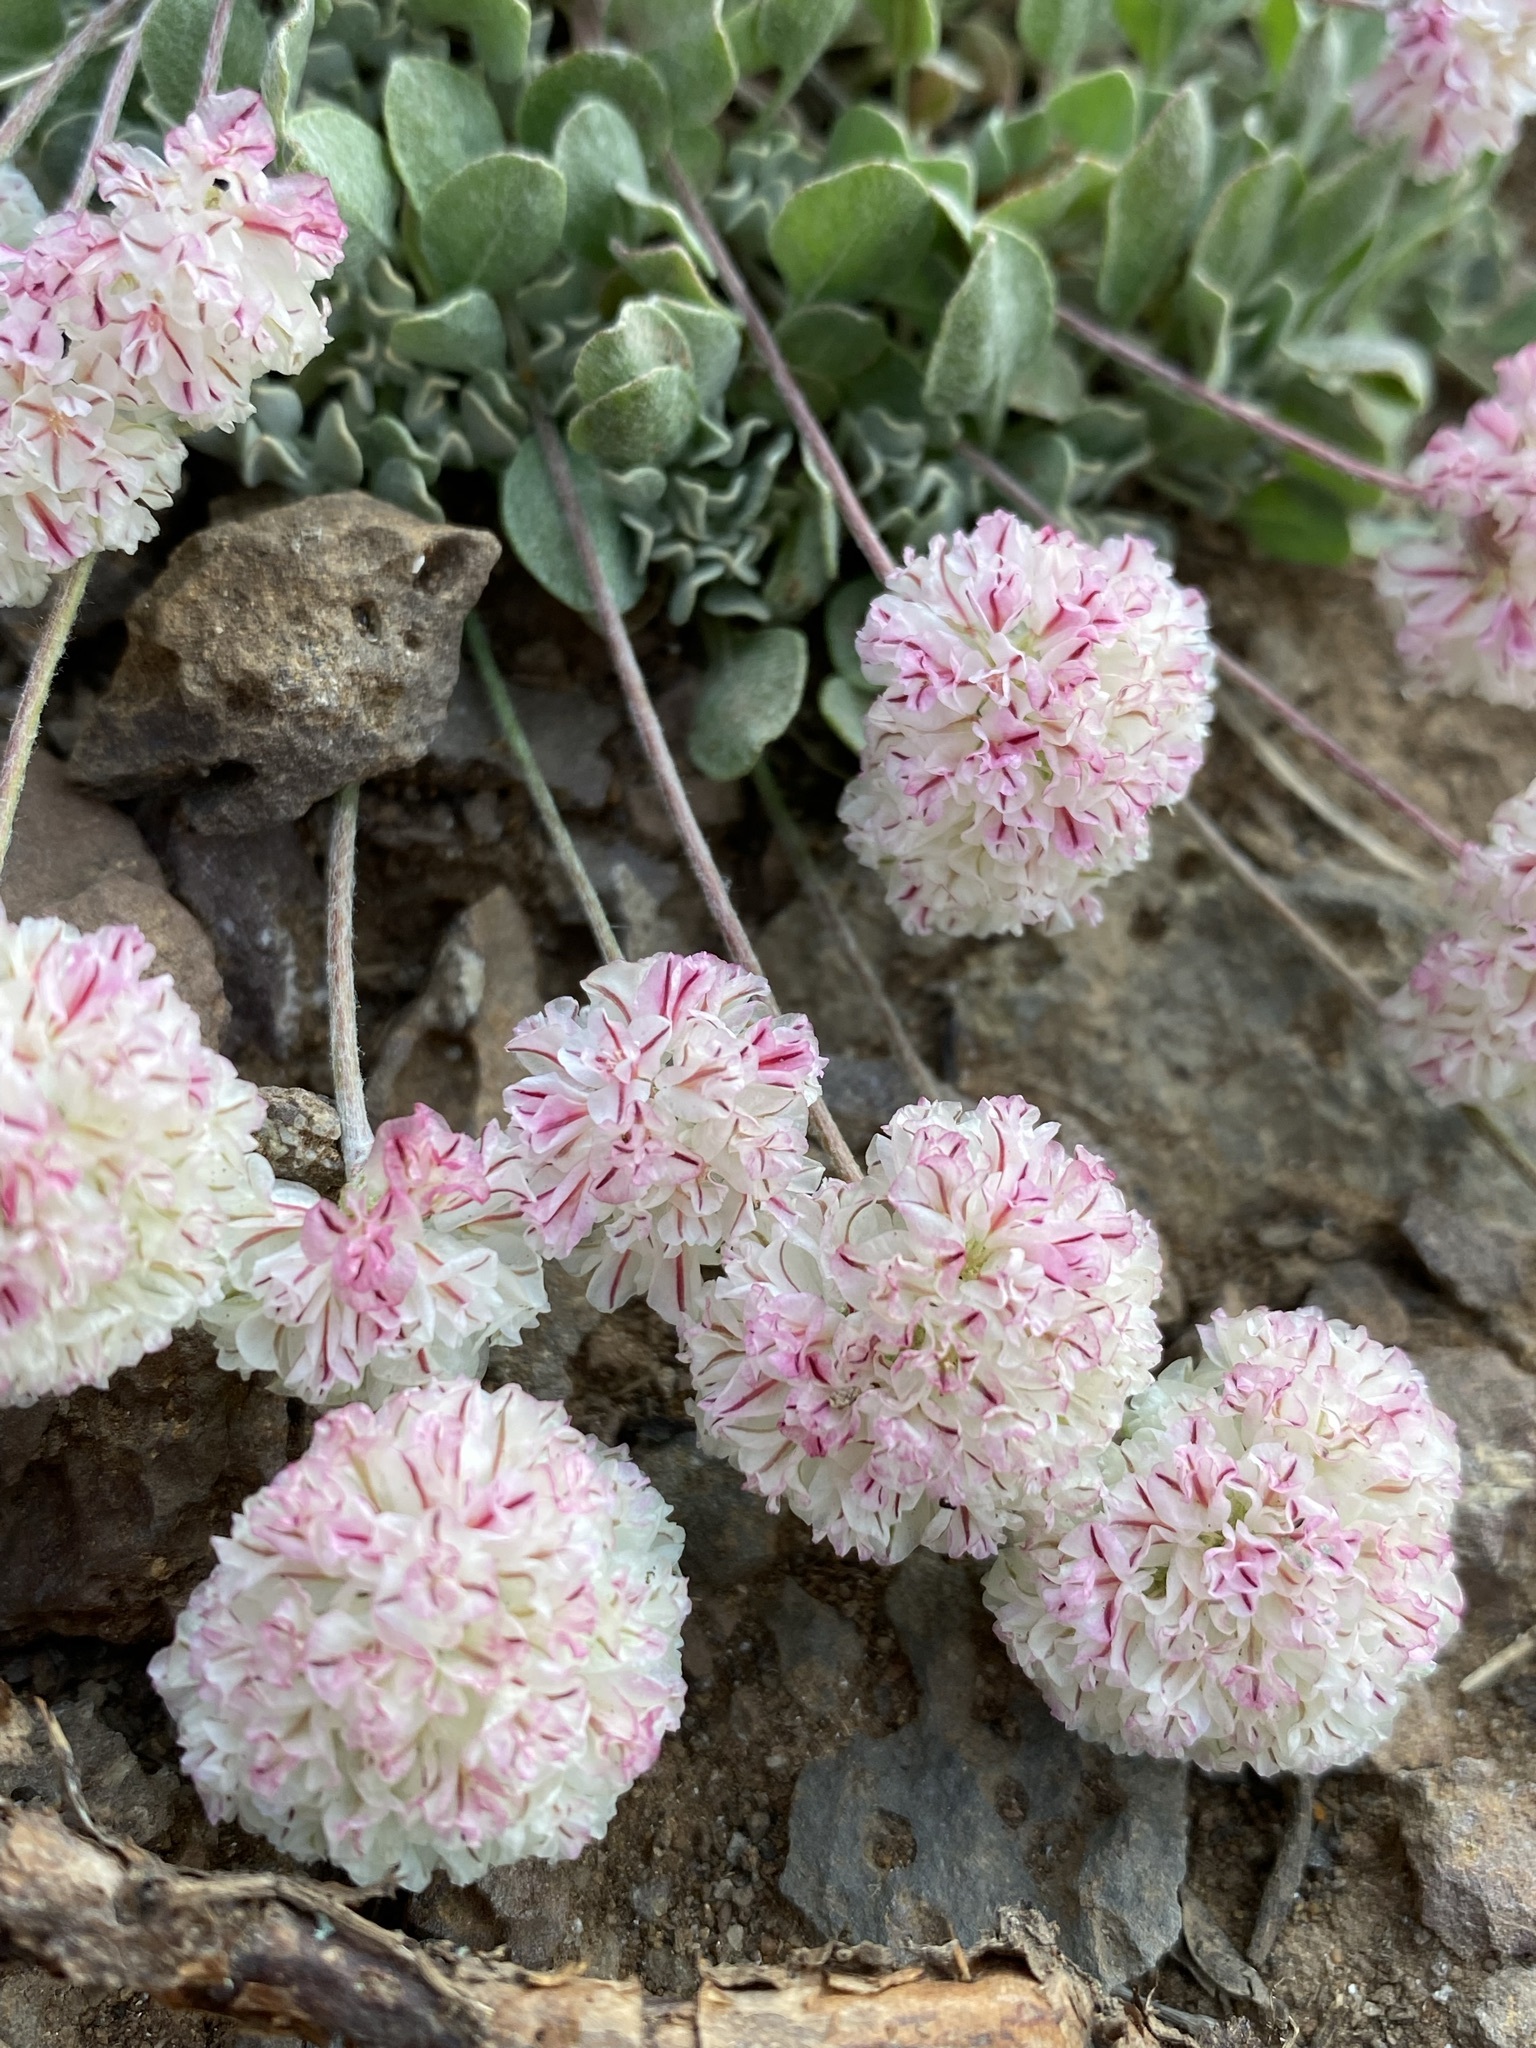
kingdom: Plantae
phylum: Tracheophyta
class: Magnoliopsida
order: Caryophyllales
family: Polygonaceae
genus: Eriogonum
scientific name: Eriogonum ovalifolium
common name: Cushion buckwheat
